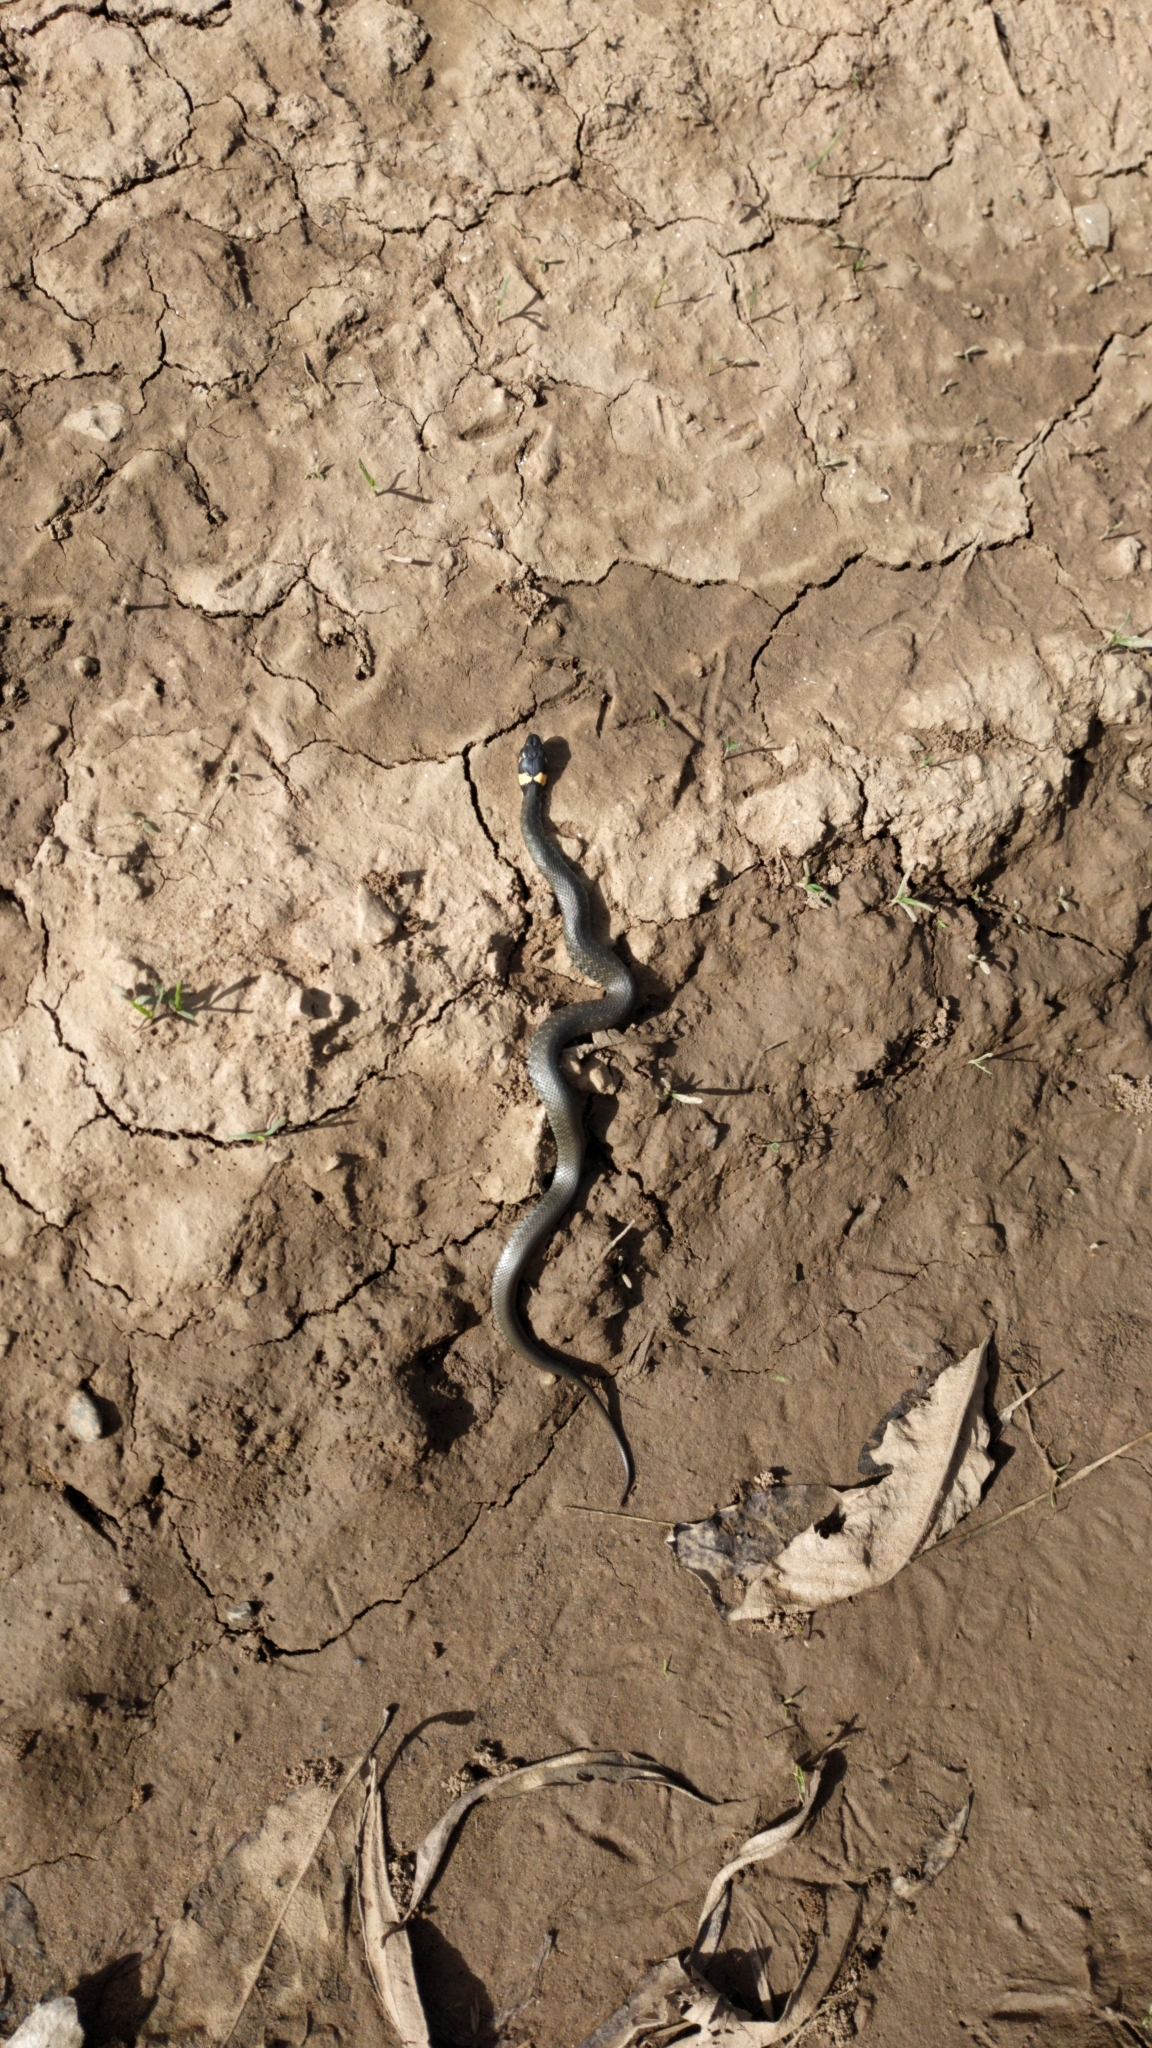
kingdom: Animalia
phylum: Chordata
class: Squamata
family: Colubridae
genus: Natrix
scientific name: Natrix natrix
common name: Grass snake
